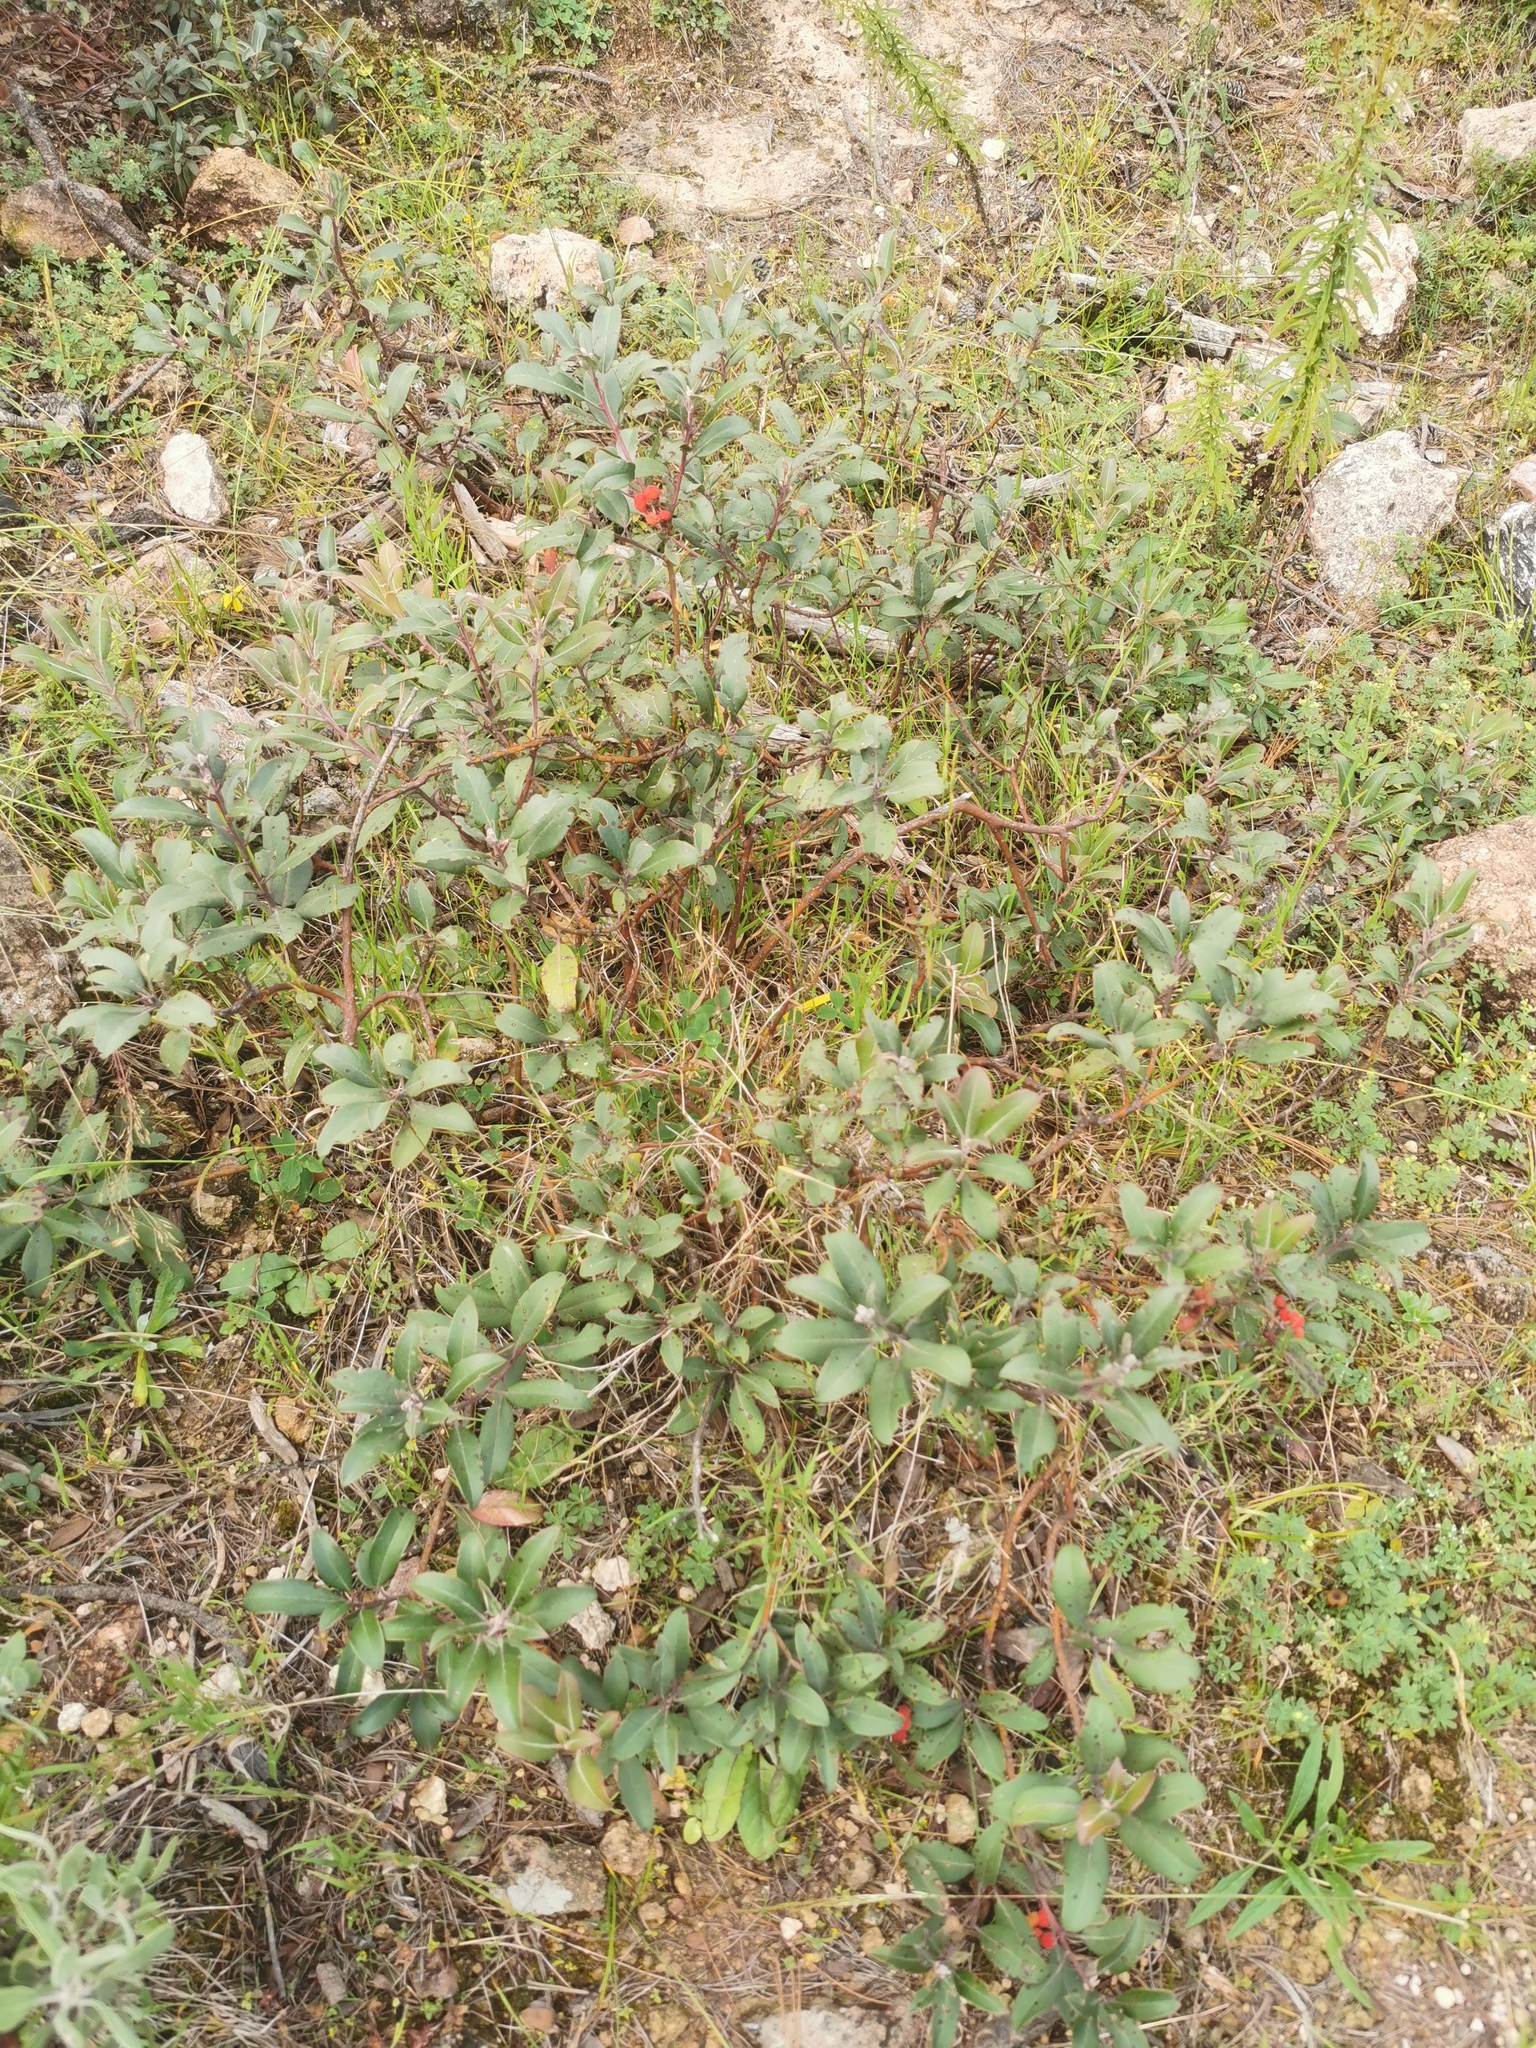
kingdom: Plantae
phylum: Tracheophyta
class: Magnoliopsida
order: Ericales
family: Ericaceae
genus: Arbutus
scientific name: Arbutus mollis
